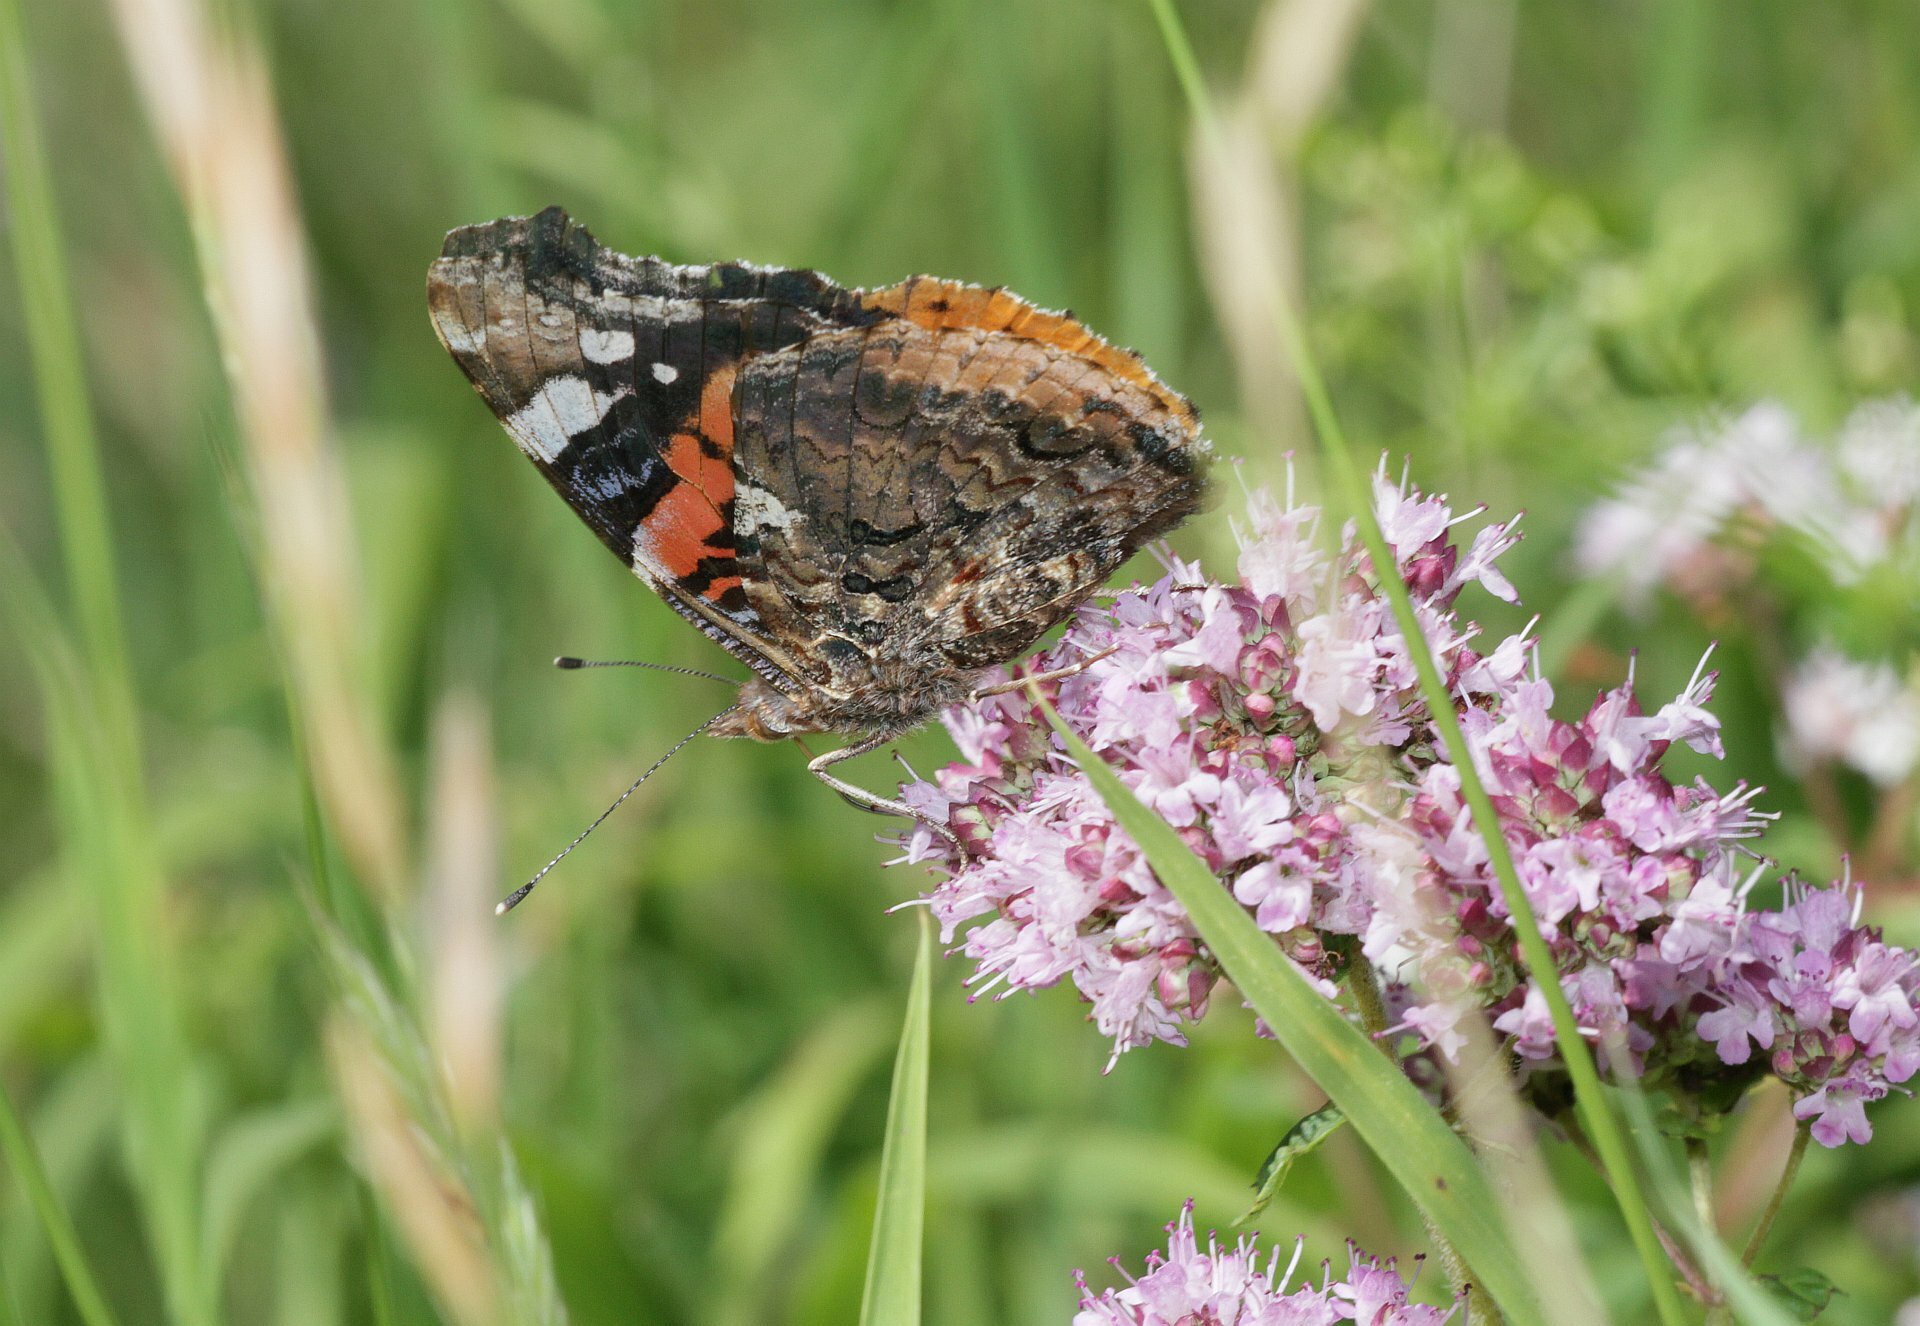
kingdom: Animalia
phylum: Arthropoda
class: Insecta
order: Lepidoptera
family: Nymphalidae
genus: Vanessa
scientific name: Vanessa atalanta
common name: Red admiral
